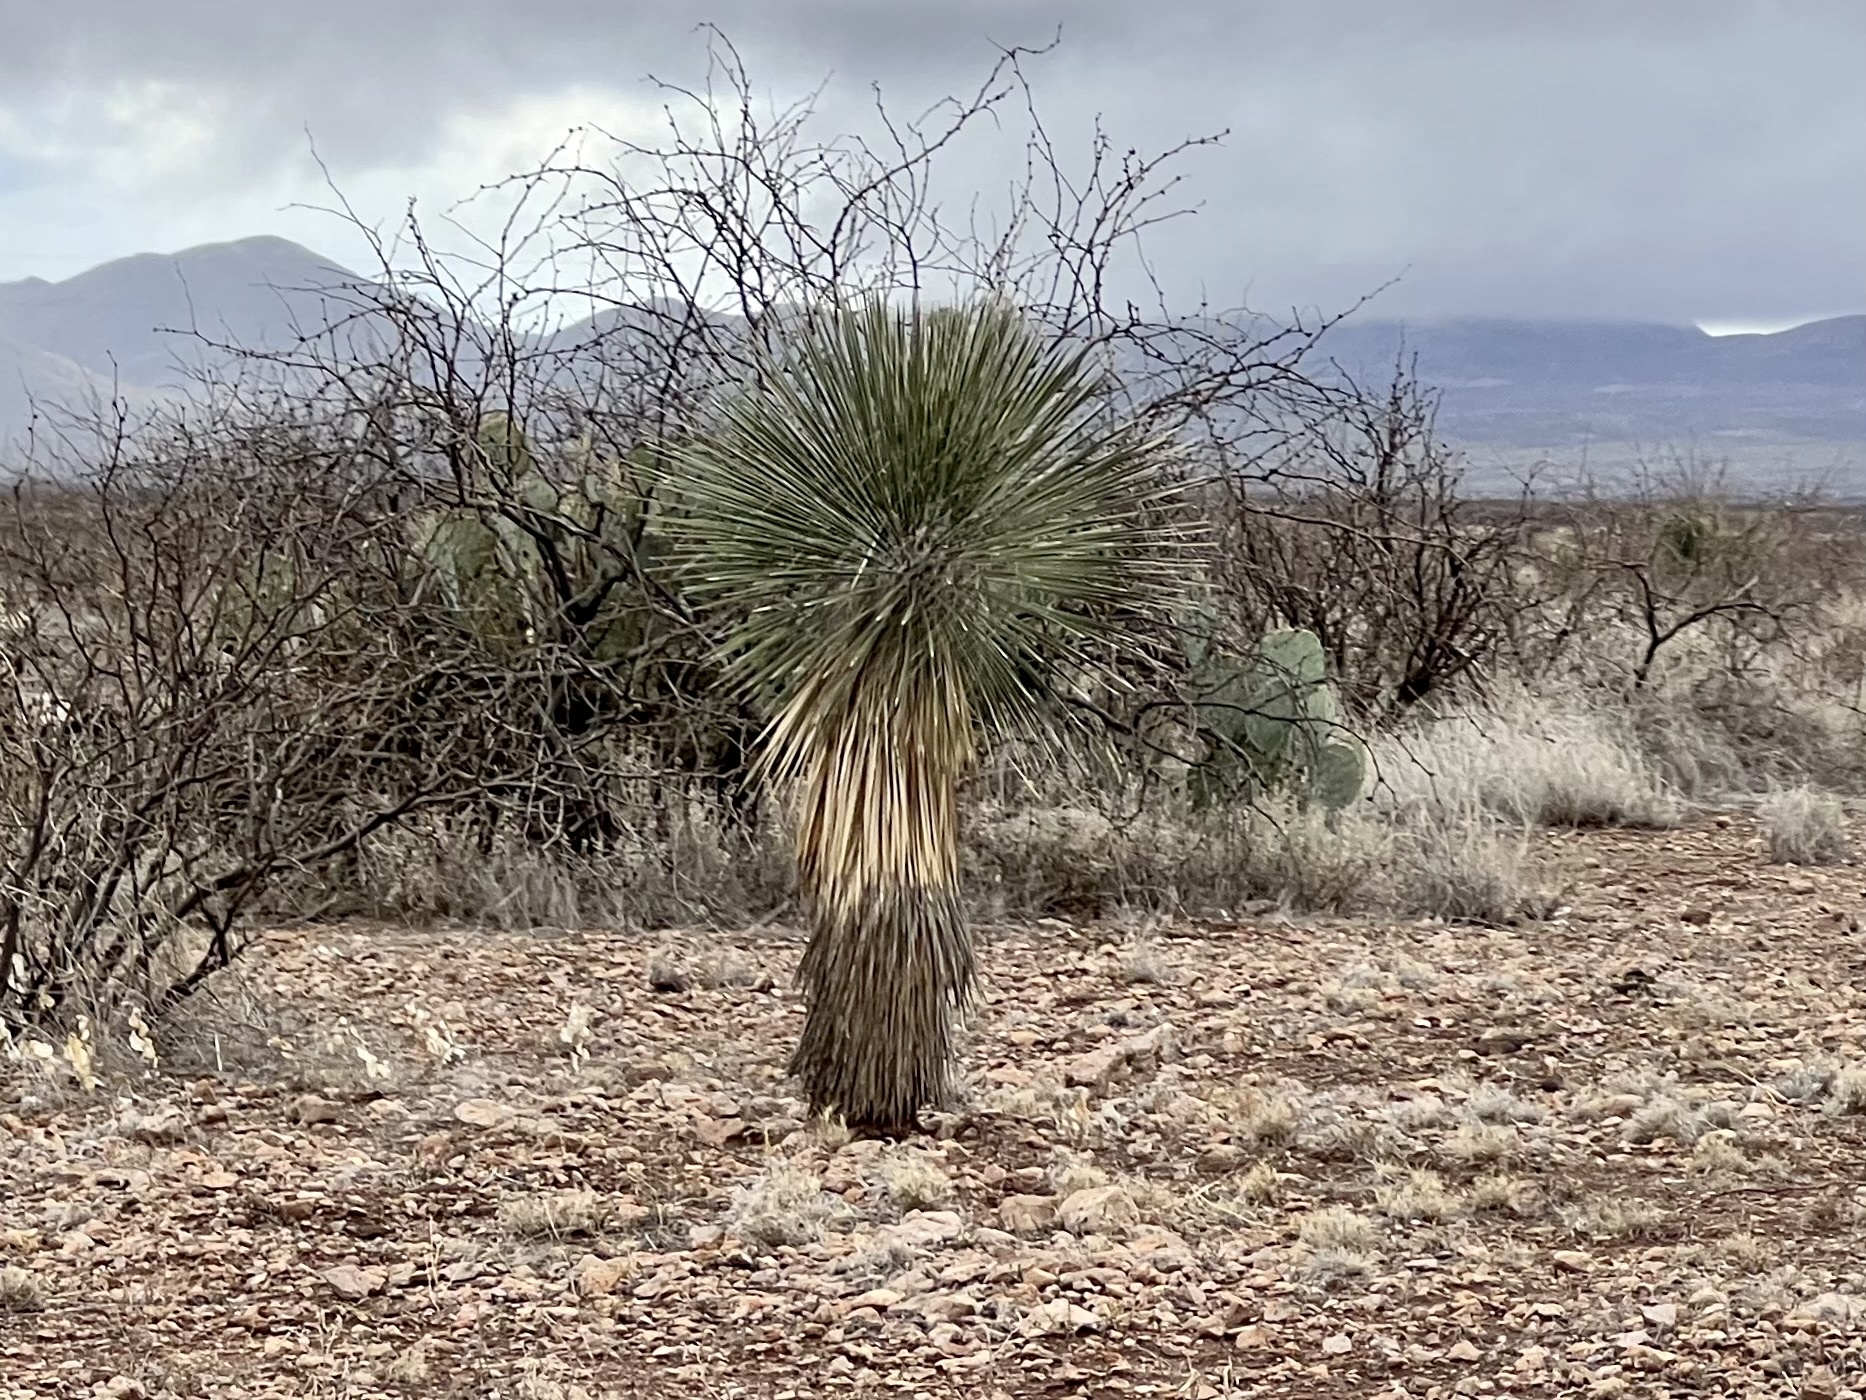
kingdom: Plantae
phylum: Tracheophyta
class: Liliopsida
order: Asparagales
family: Asparagaceae
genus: Yucca
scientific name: Yucca elata
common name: Palmella
